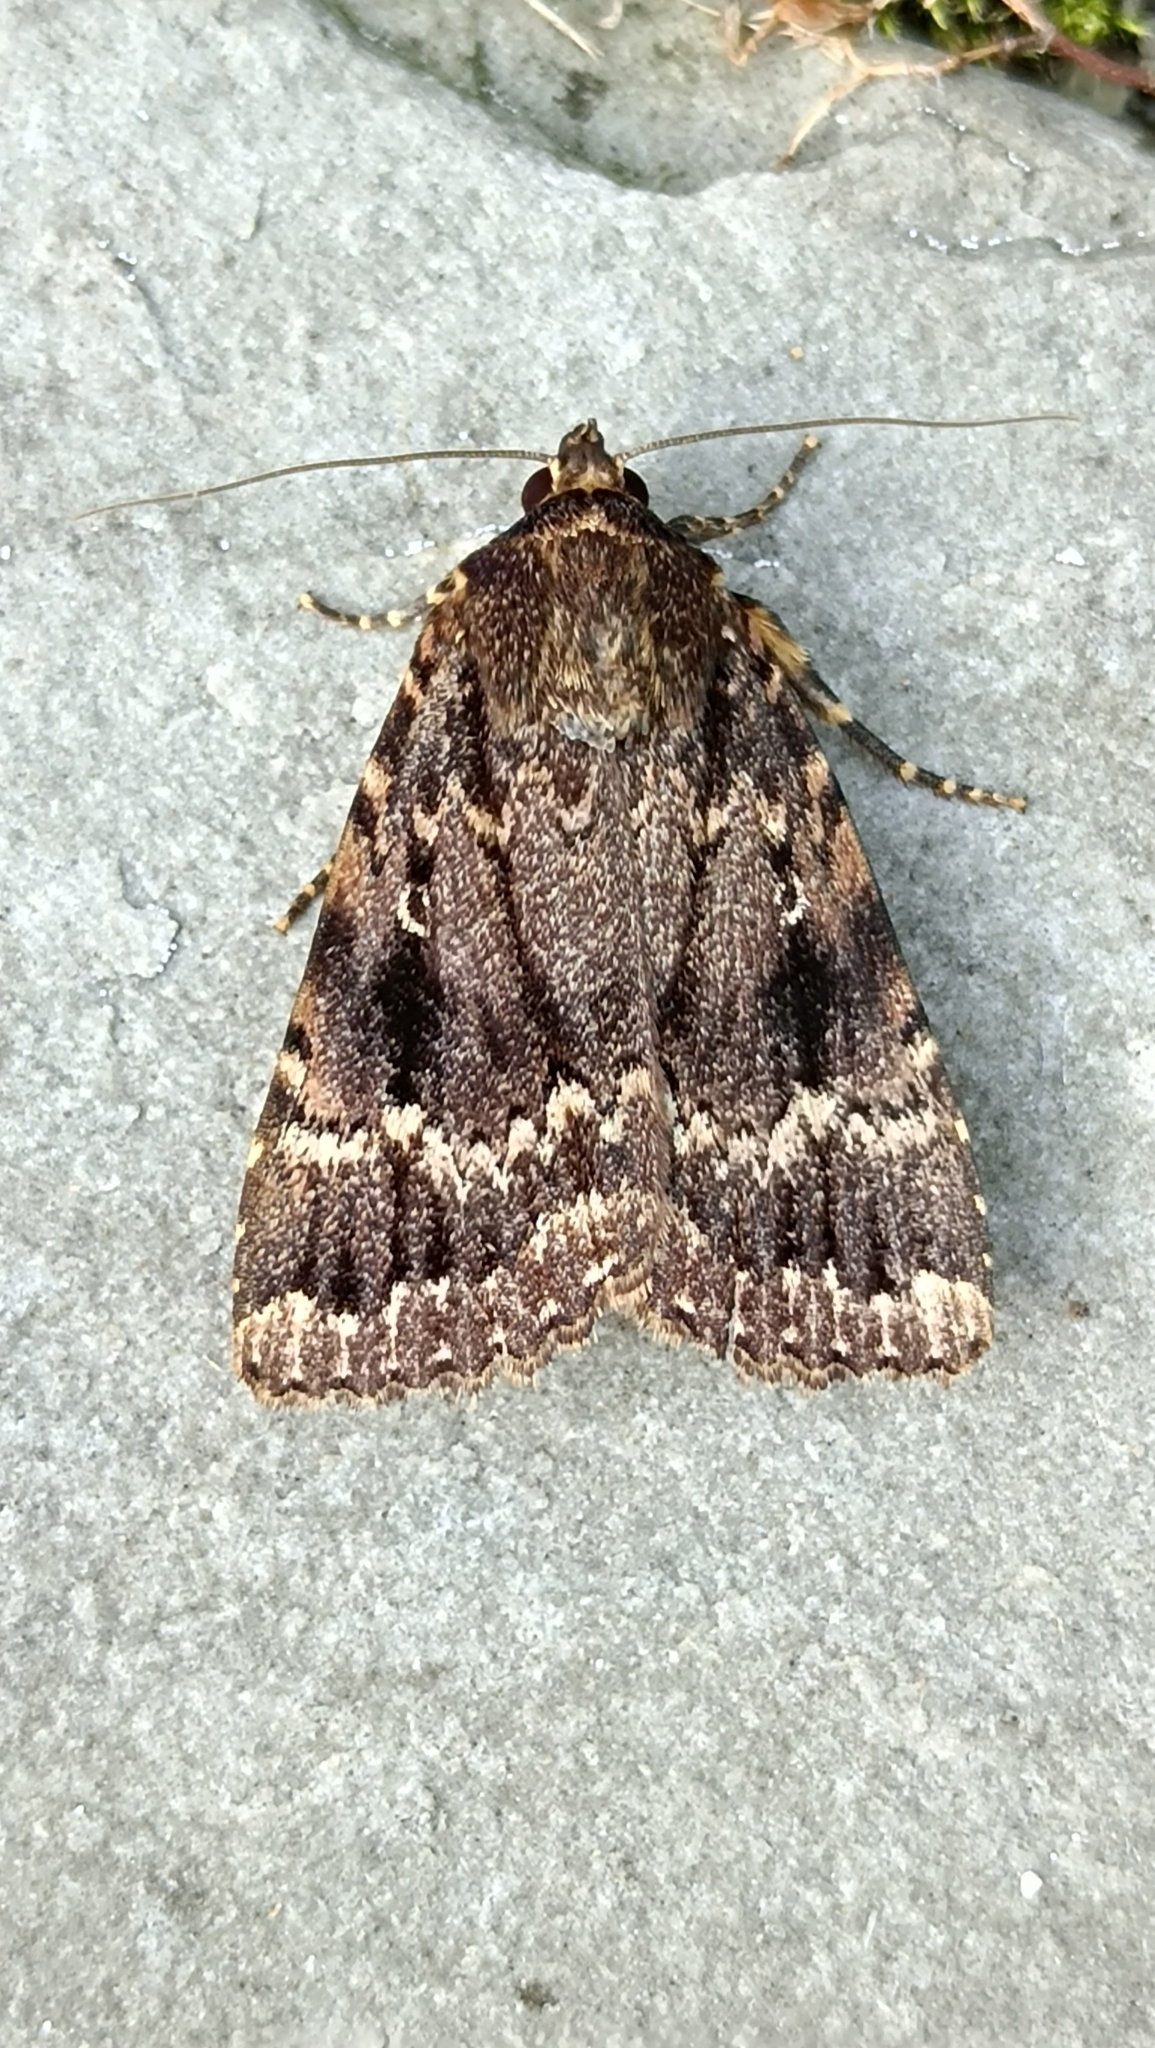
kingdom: Animalia
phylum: Arthropoda
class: Insecta
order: Lepidoptera
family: Noctuidae
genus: Amphipyra
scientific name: Amphipyra
